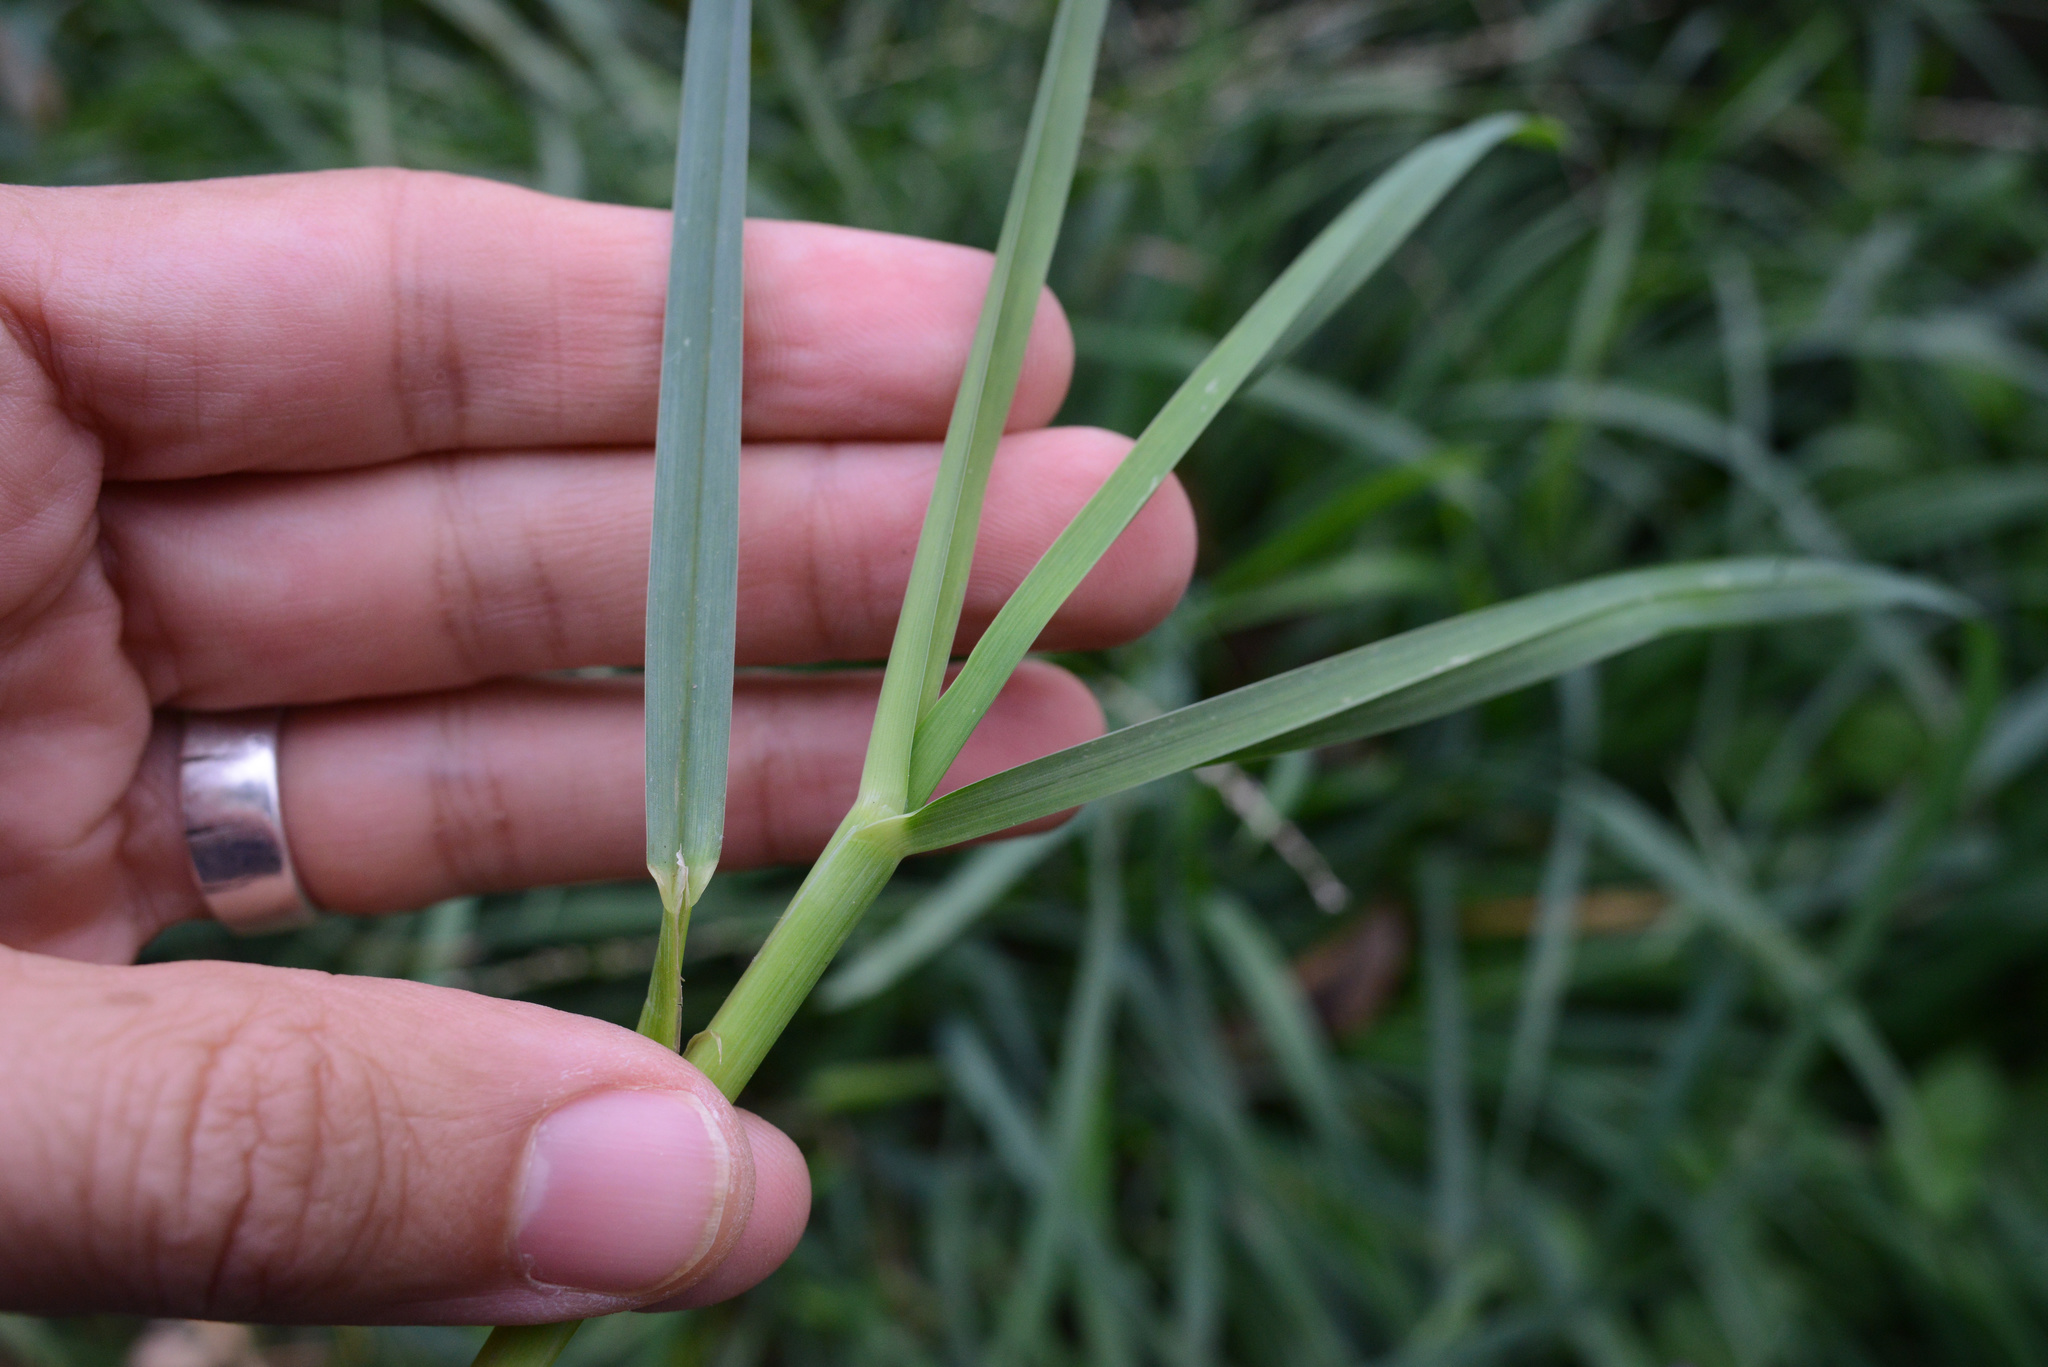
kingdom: Plantae
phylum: Tracheophyta
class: Liliopsida
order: Poales
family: Poaceae
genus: Dactylis
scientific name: Dactylis glomerata
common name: Orchardgrass
